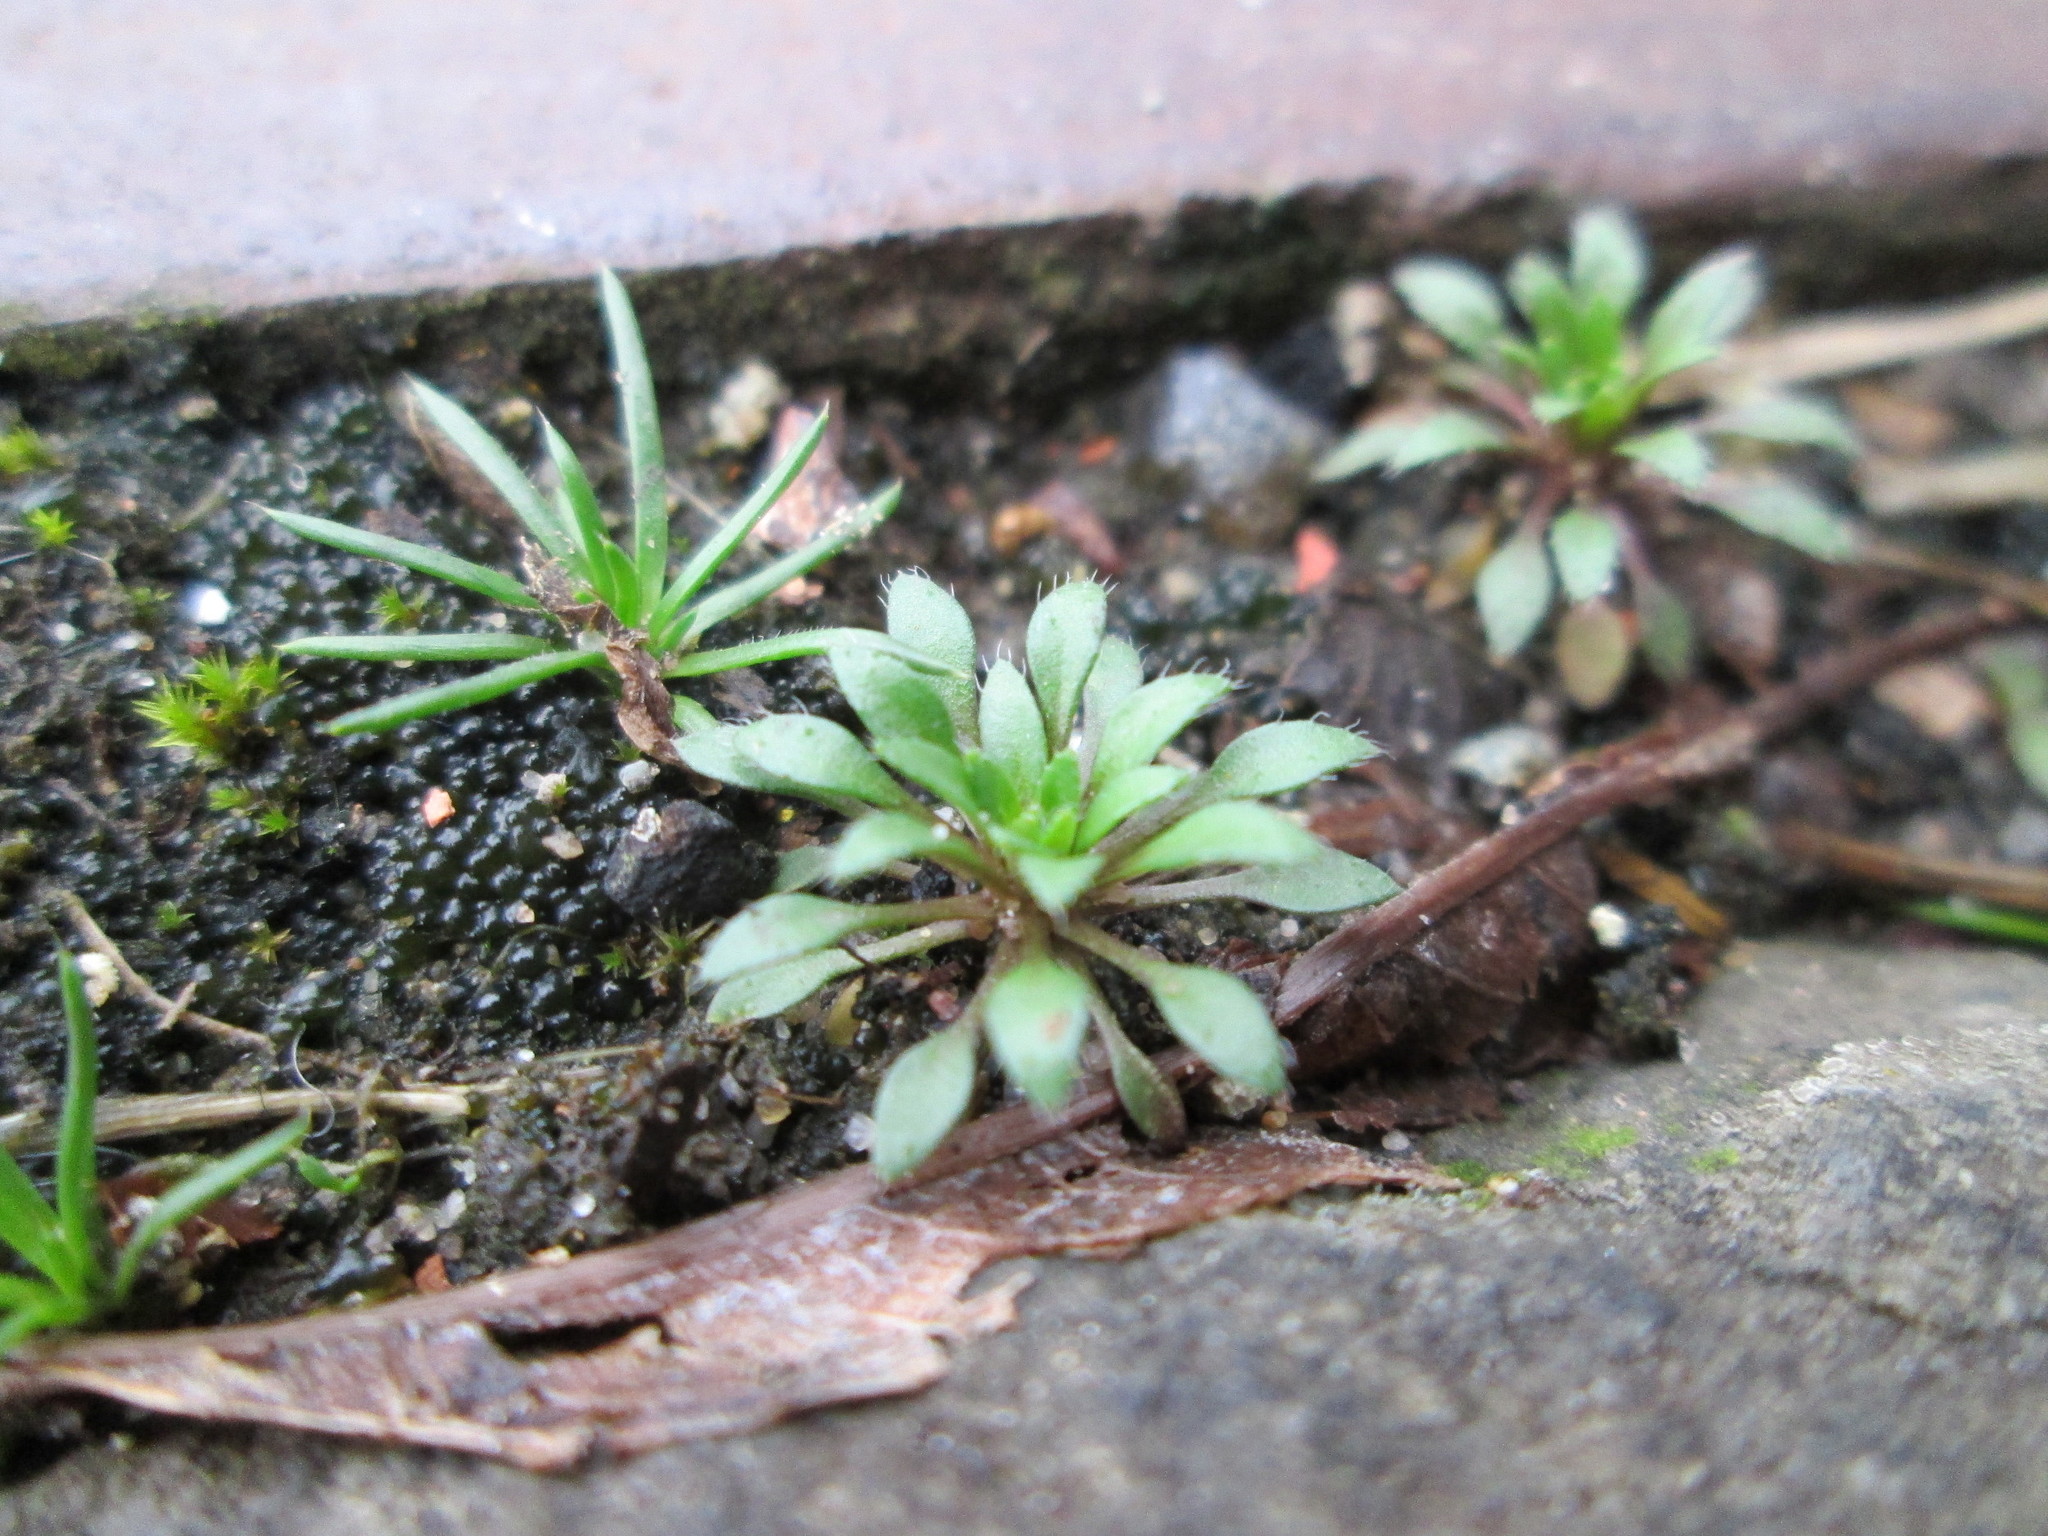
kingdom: Plantae
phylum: Tracheophyta
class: Magnoliopsida
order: Brassicales
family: Brassicaceae
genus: Draba
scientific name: Draba verna
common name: Spring draba
